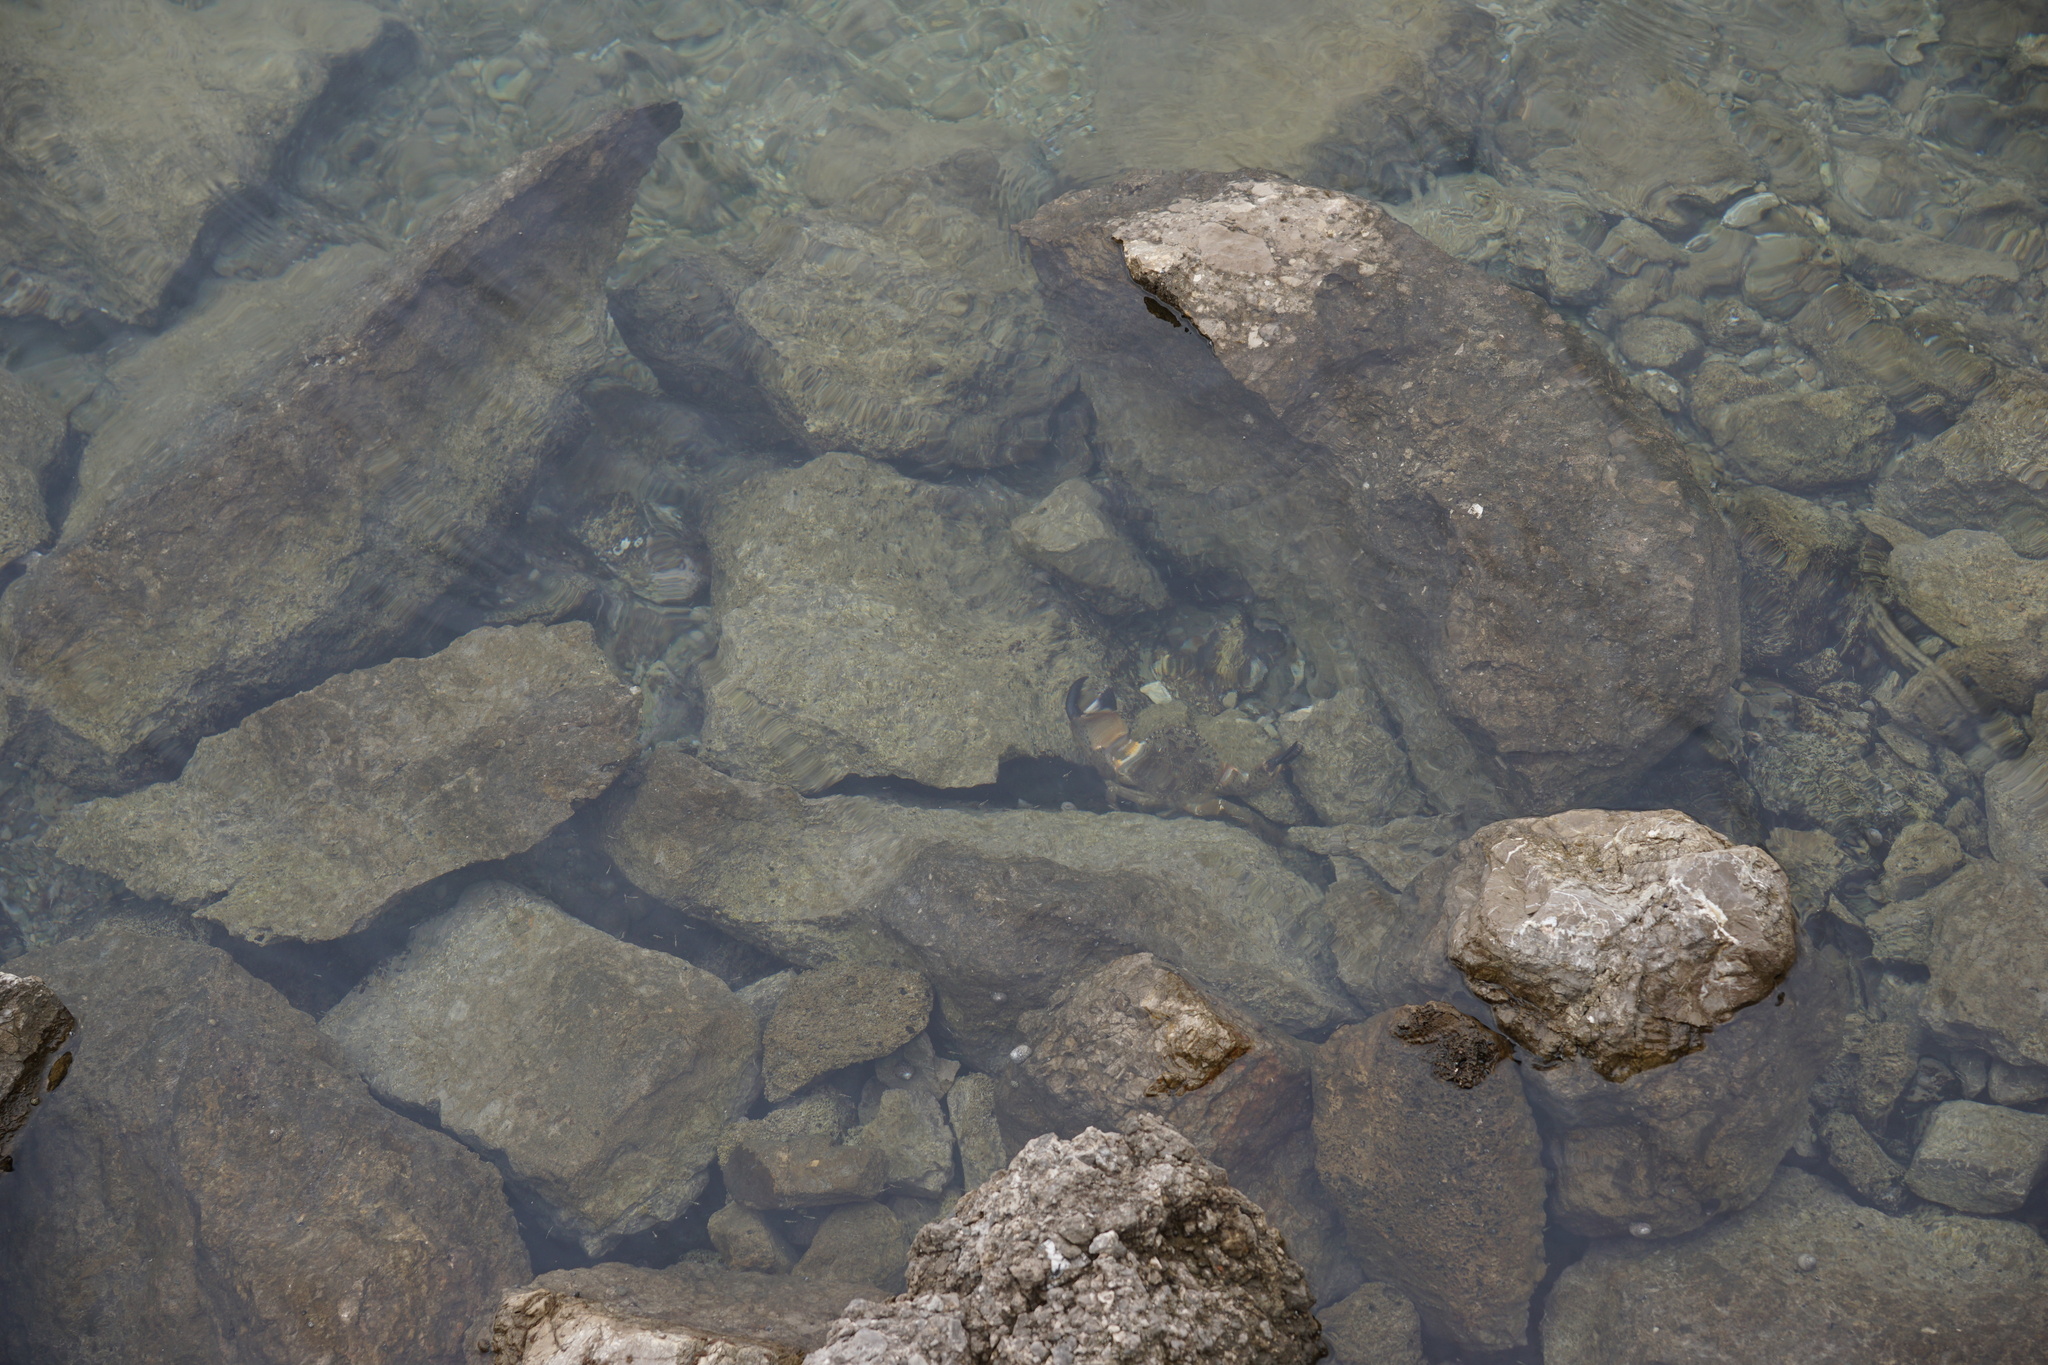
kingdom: Animalia
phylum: Arthropoda
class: Malacostraca
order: Decapoda
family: Eriphiidae
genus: Eriphia
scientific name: Eriphia verrucosa
